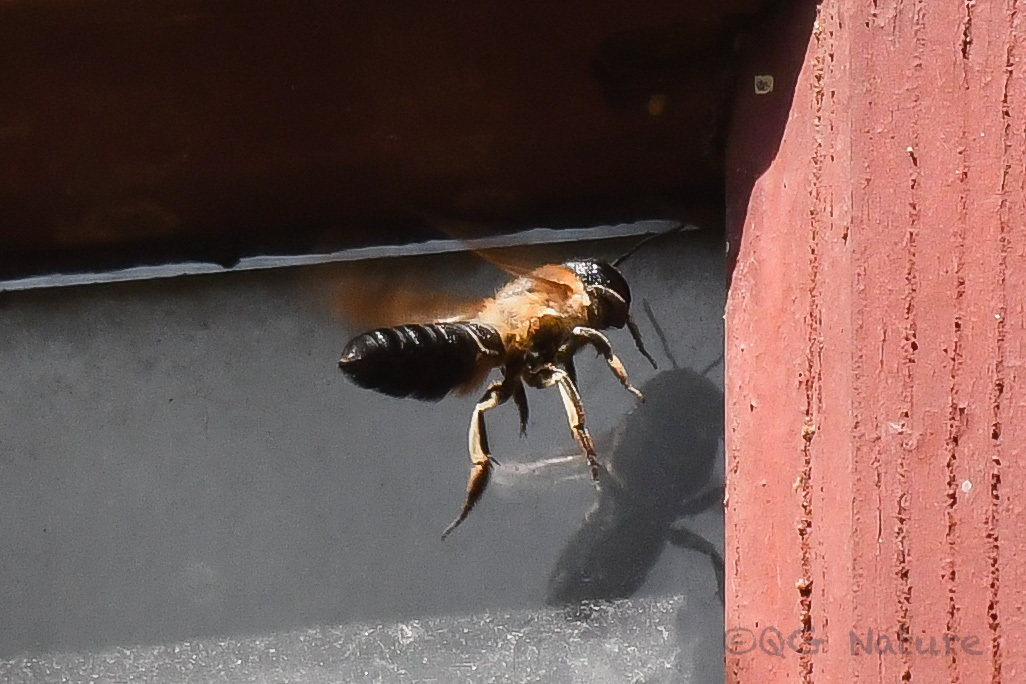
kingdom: Animalia
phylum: Arthropoda
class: Insecta
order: Hymenoptera
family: Megachilidae
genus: Megachile
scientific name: Megachile sculpturalis
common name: Sculptured resin bee
